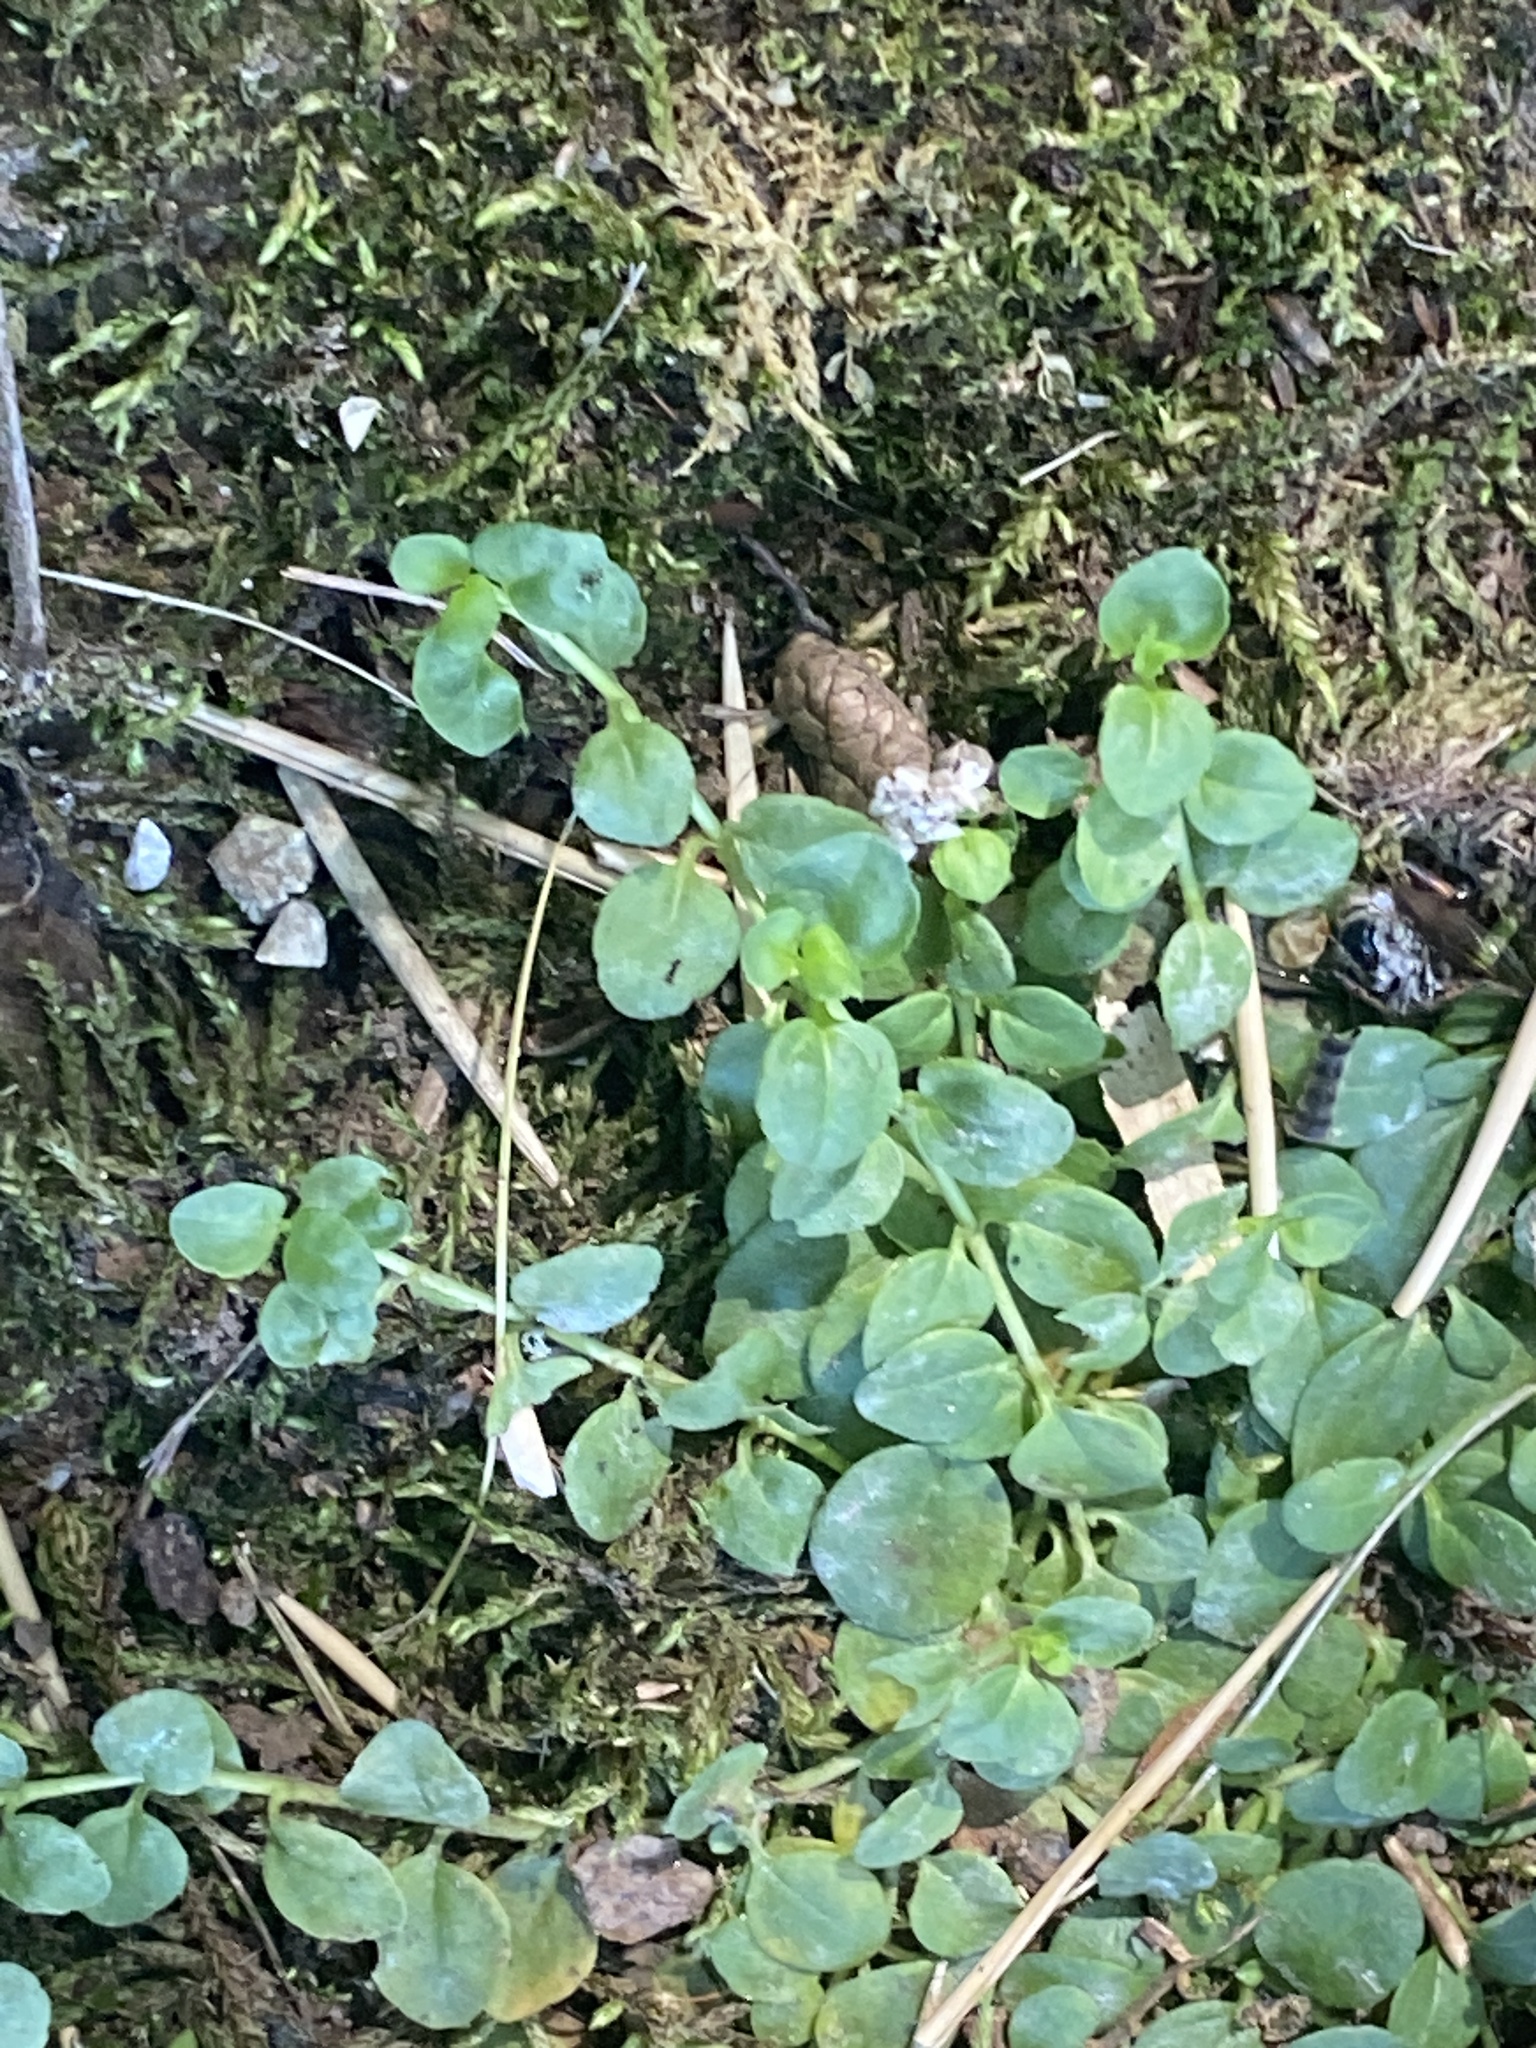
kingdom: Plantae
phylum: Tracheophyta
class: Magnoliopsida
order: Lamiales
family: Plantaginaceae
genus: Veronica
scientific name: Veronica serpyllifolia
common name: Thyme-leaved speedwell
